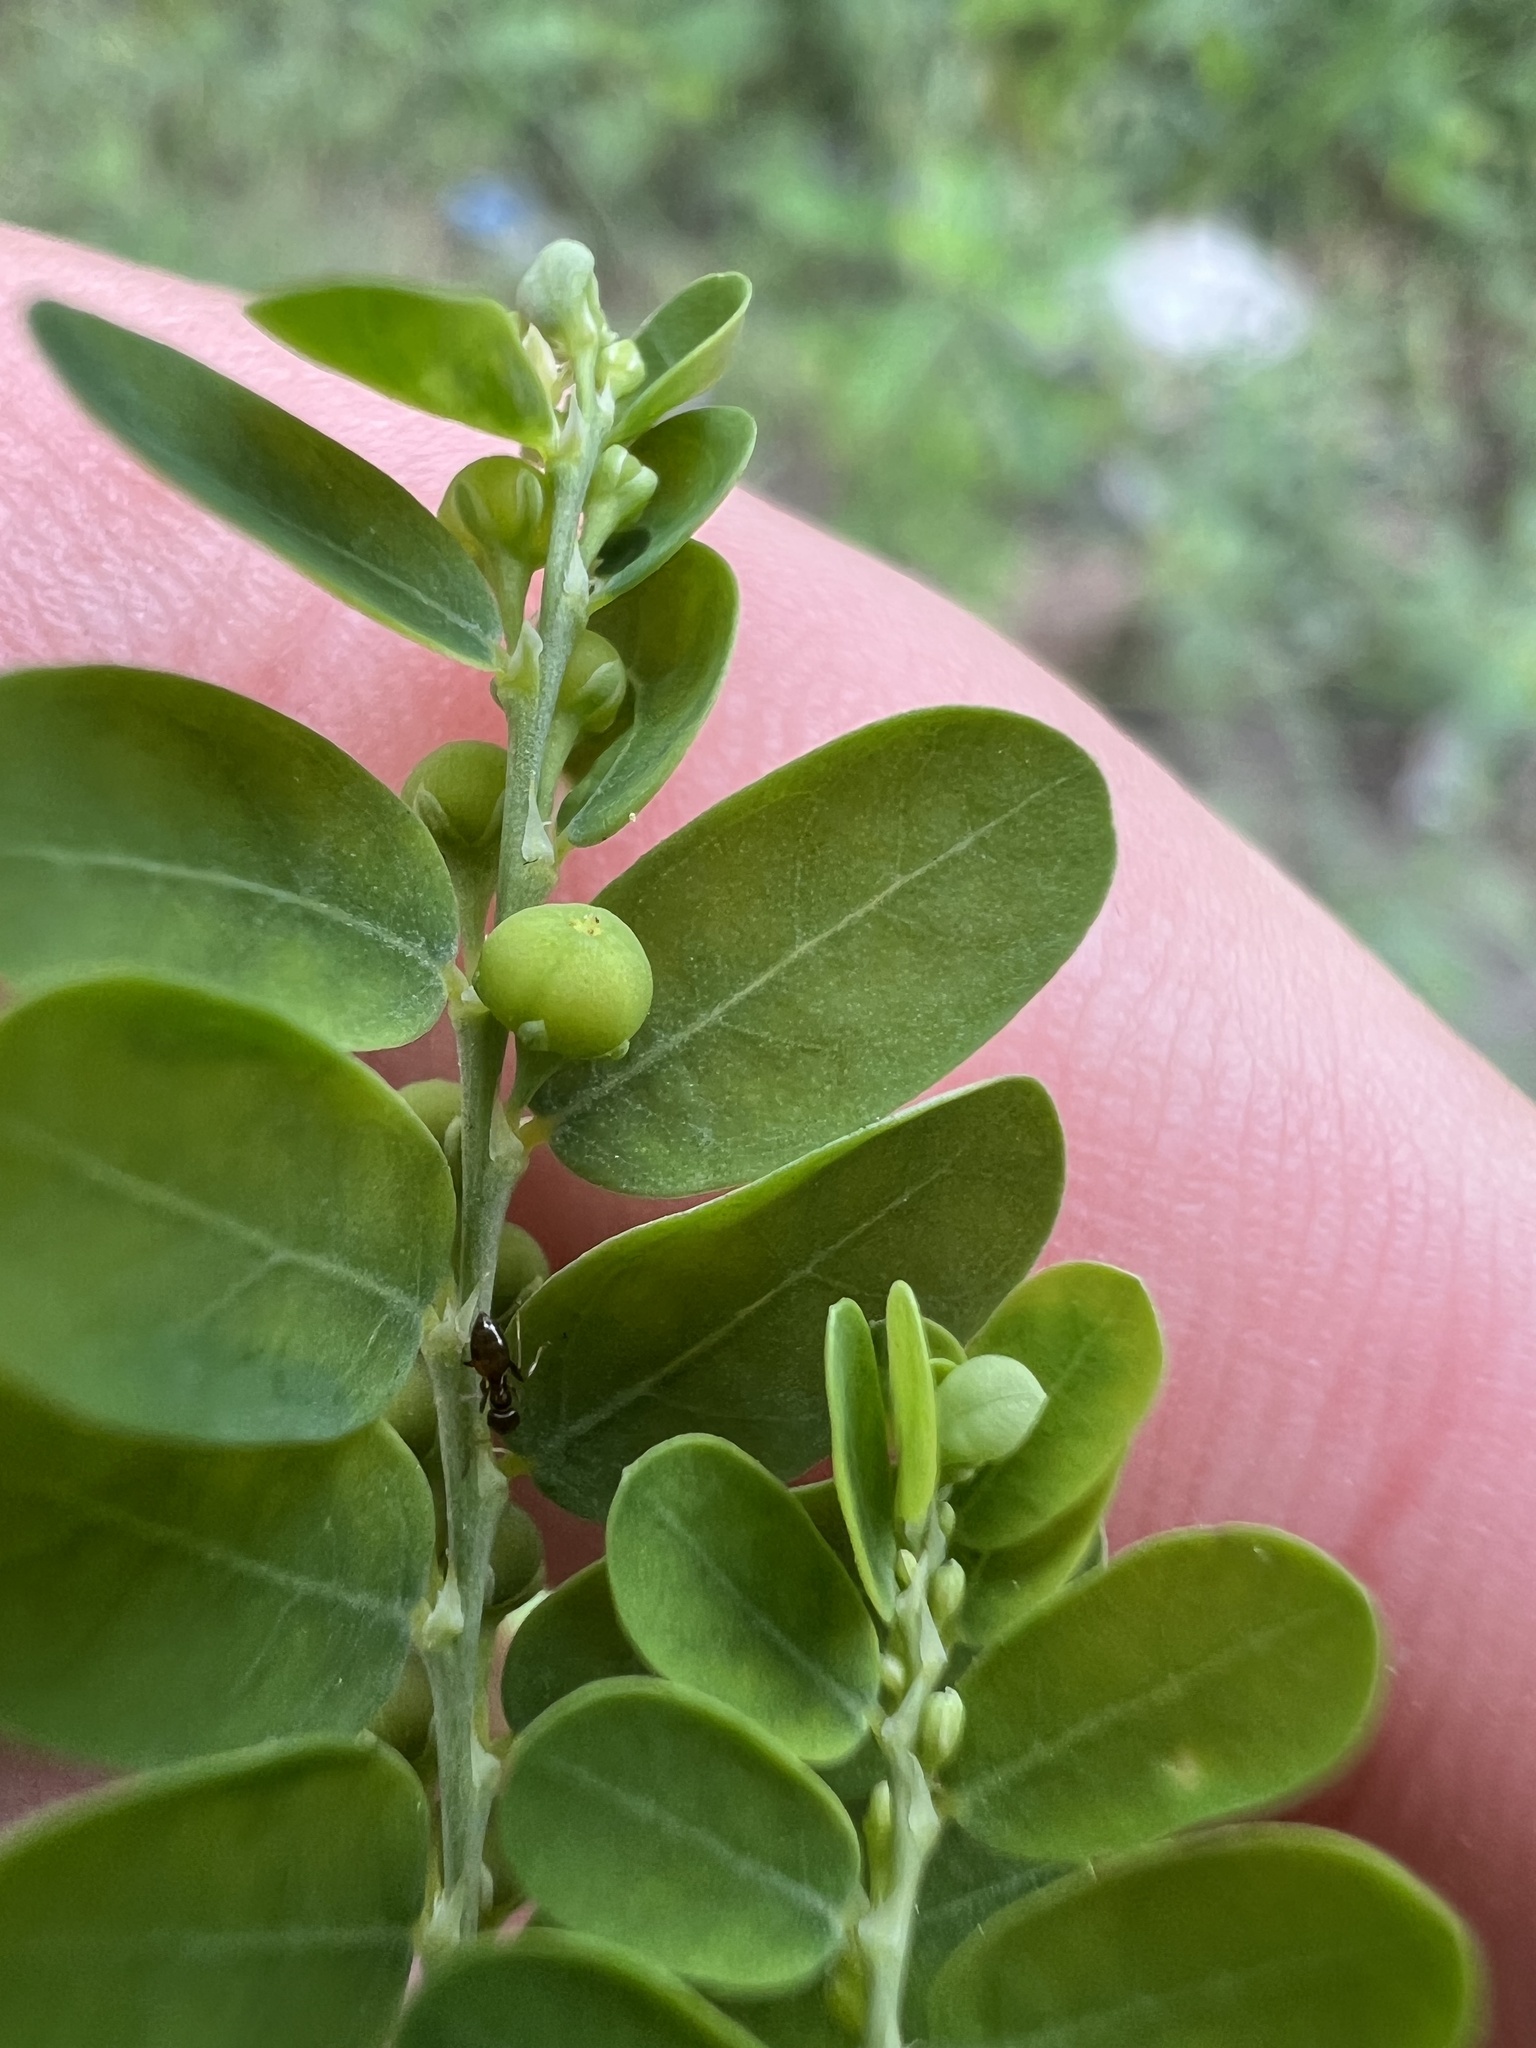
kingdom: Plantae
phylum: Tracheophyta
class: Magnoliopsida
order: Malpighiales
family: Phyllanthaceae
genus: Phyllanthus
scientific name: Phyllanthus amarus
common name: Carry me seed
